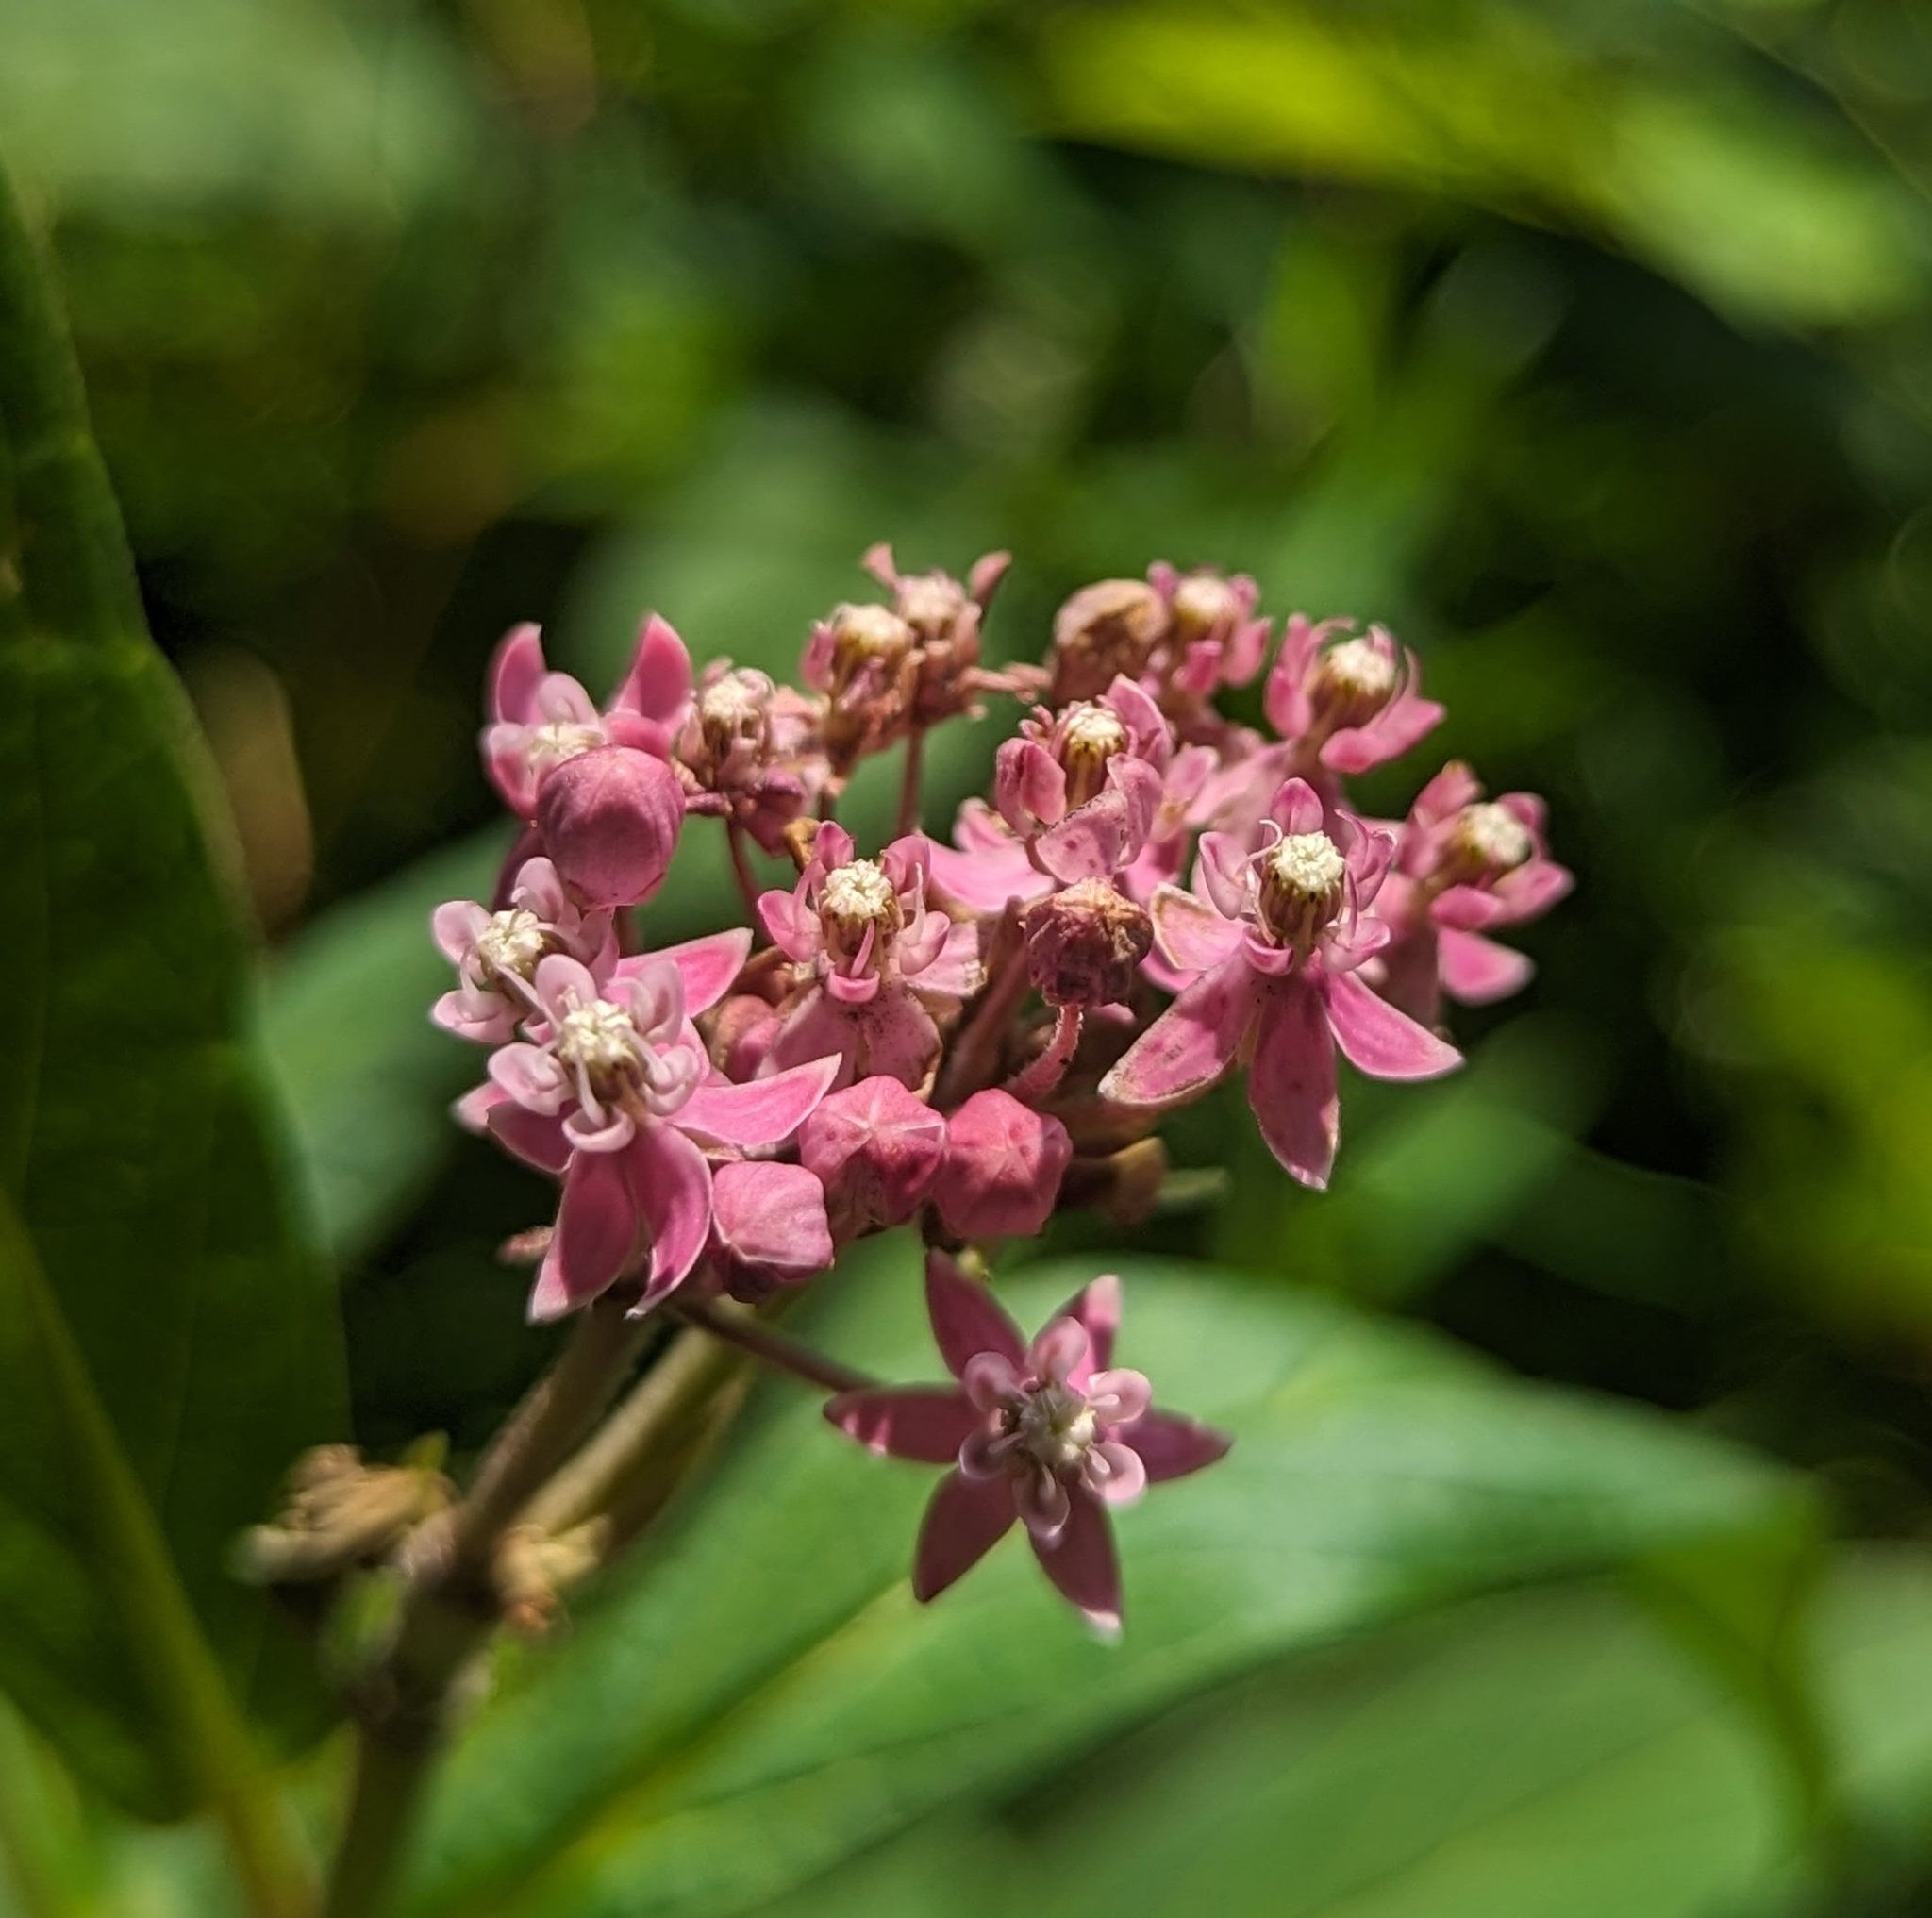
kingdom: Plantae
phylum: Tracheophyta
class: Magnoliopsida
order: Gentianales
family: Apocynaceae
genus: Asclepias
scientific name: Asclepias incarnata
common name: Swamp milkweed
